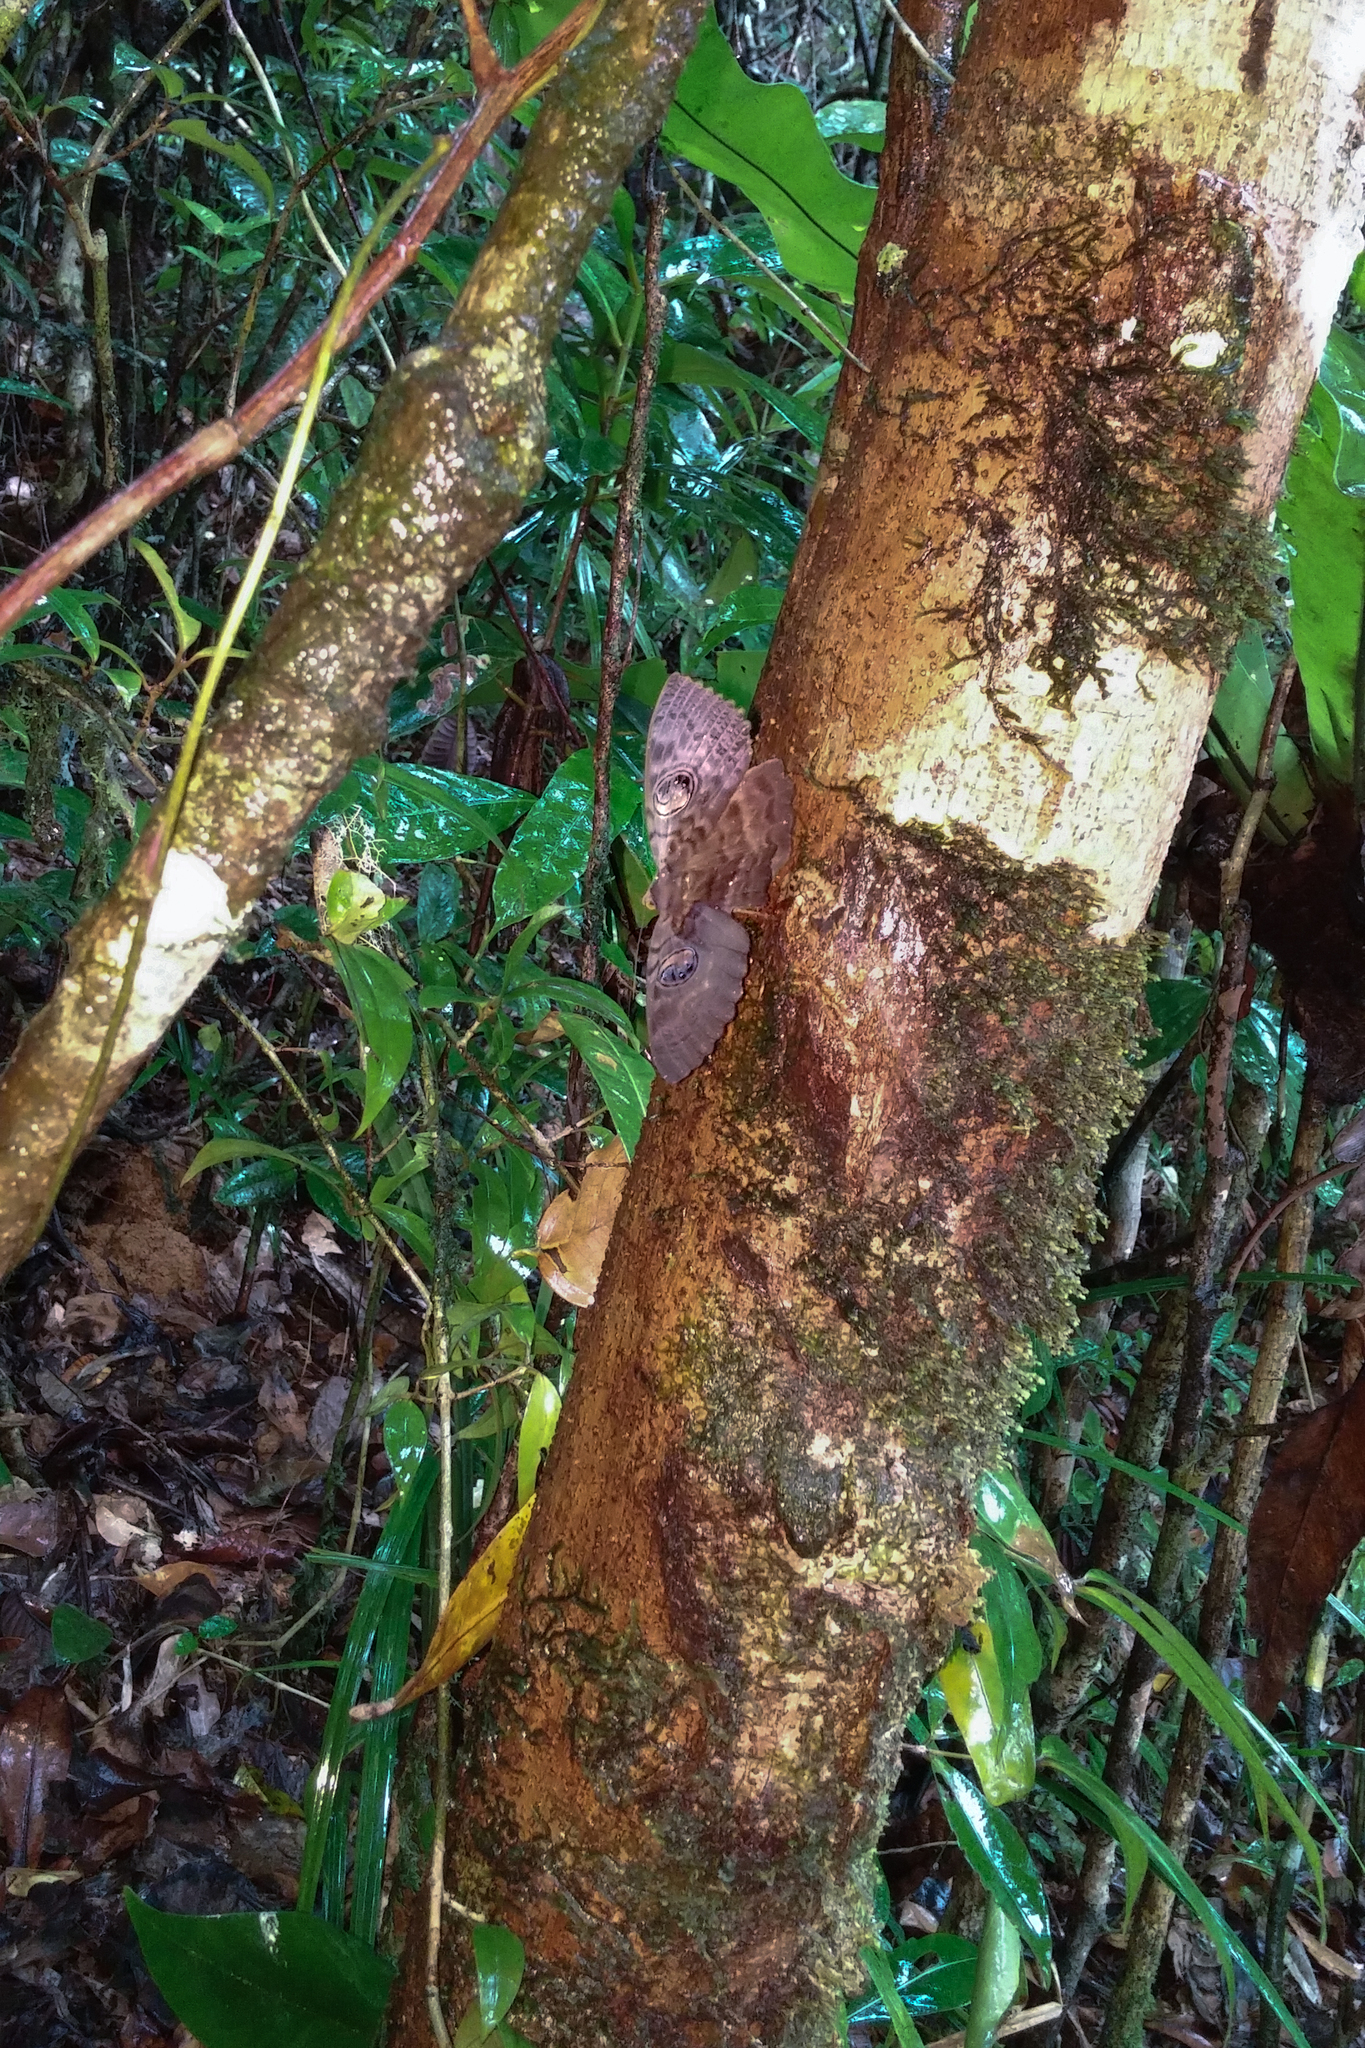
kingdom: Animalia
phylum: Arthropoda
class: Insecta
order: Lepidoptera
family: Erebidae
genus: Erebus
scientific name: Erebus walkeri
